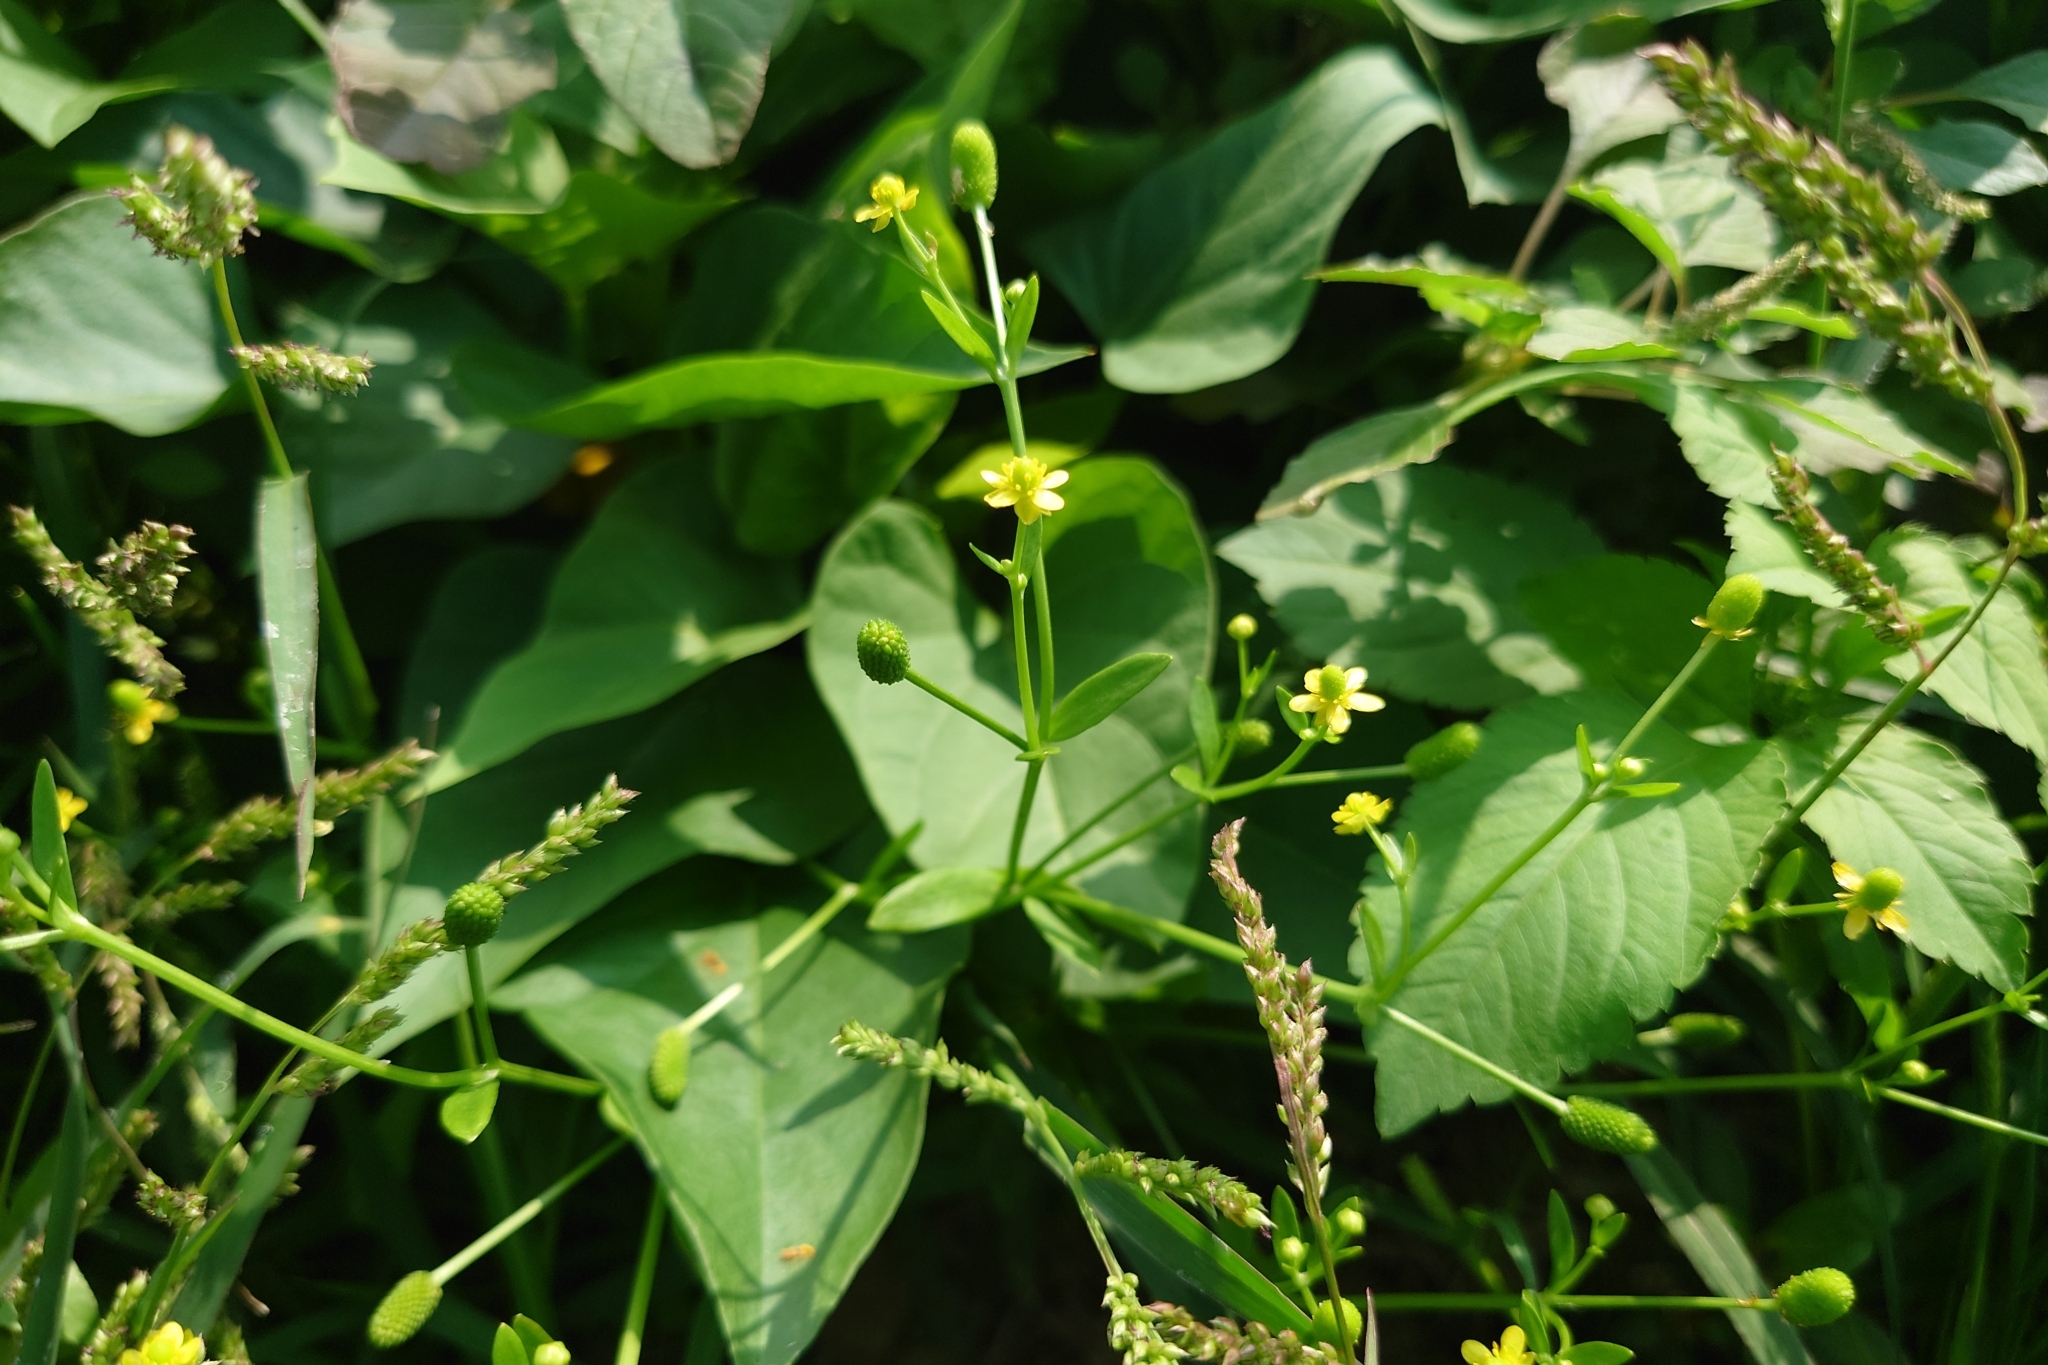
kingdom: Plantae
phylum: Tracheophyta
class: Magnoliopsida
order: Ranunculales
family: Ranunculaceae
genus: Ranunculus
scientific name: Ranunculus sceleratus
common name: Celery-leaved buttercup
